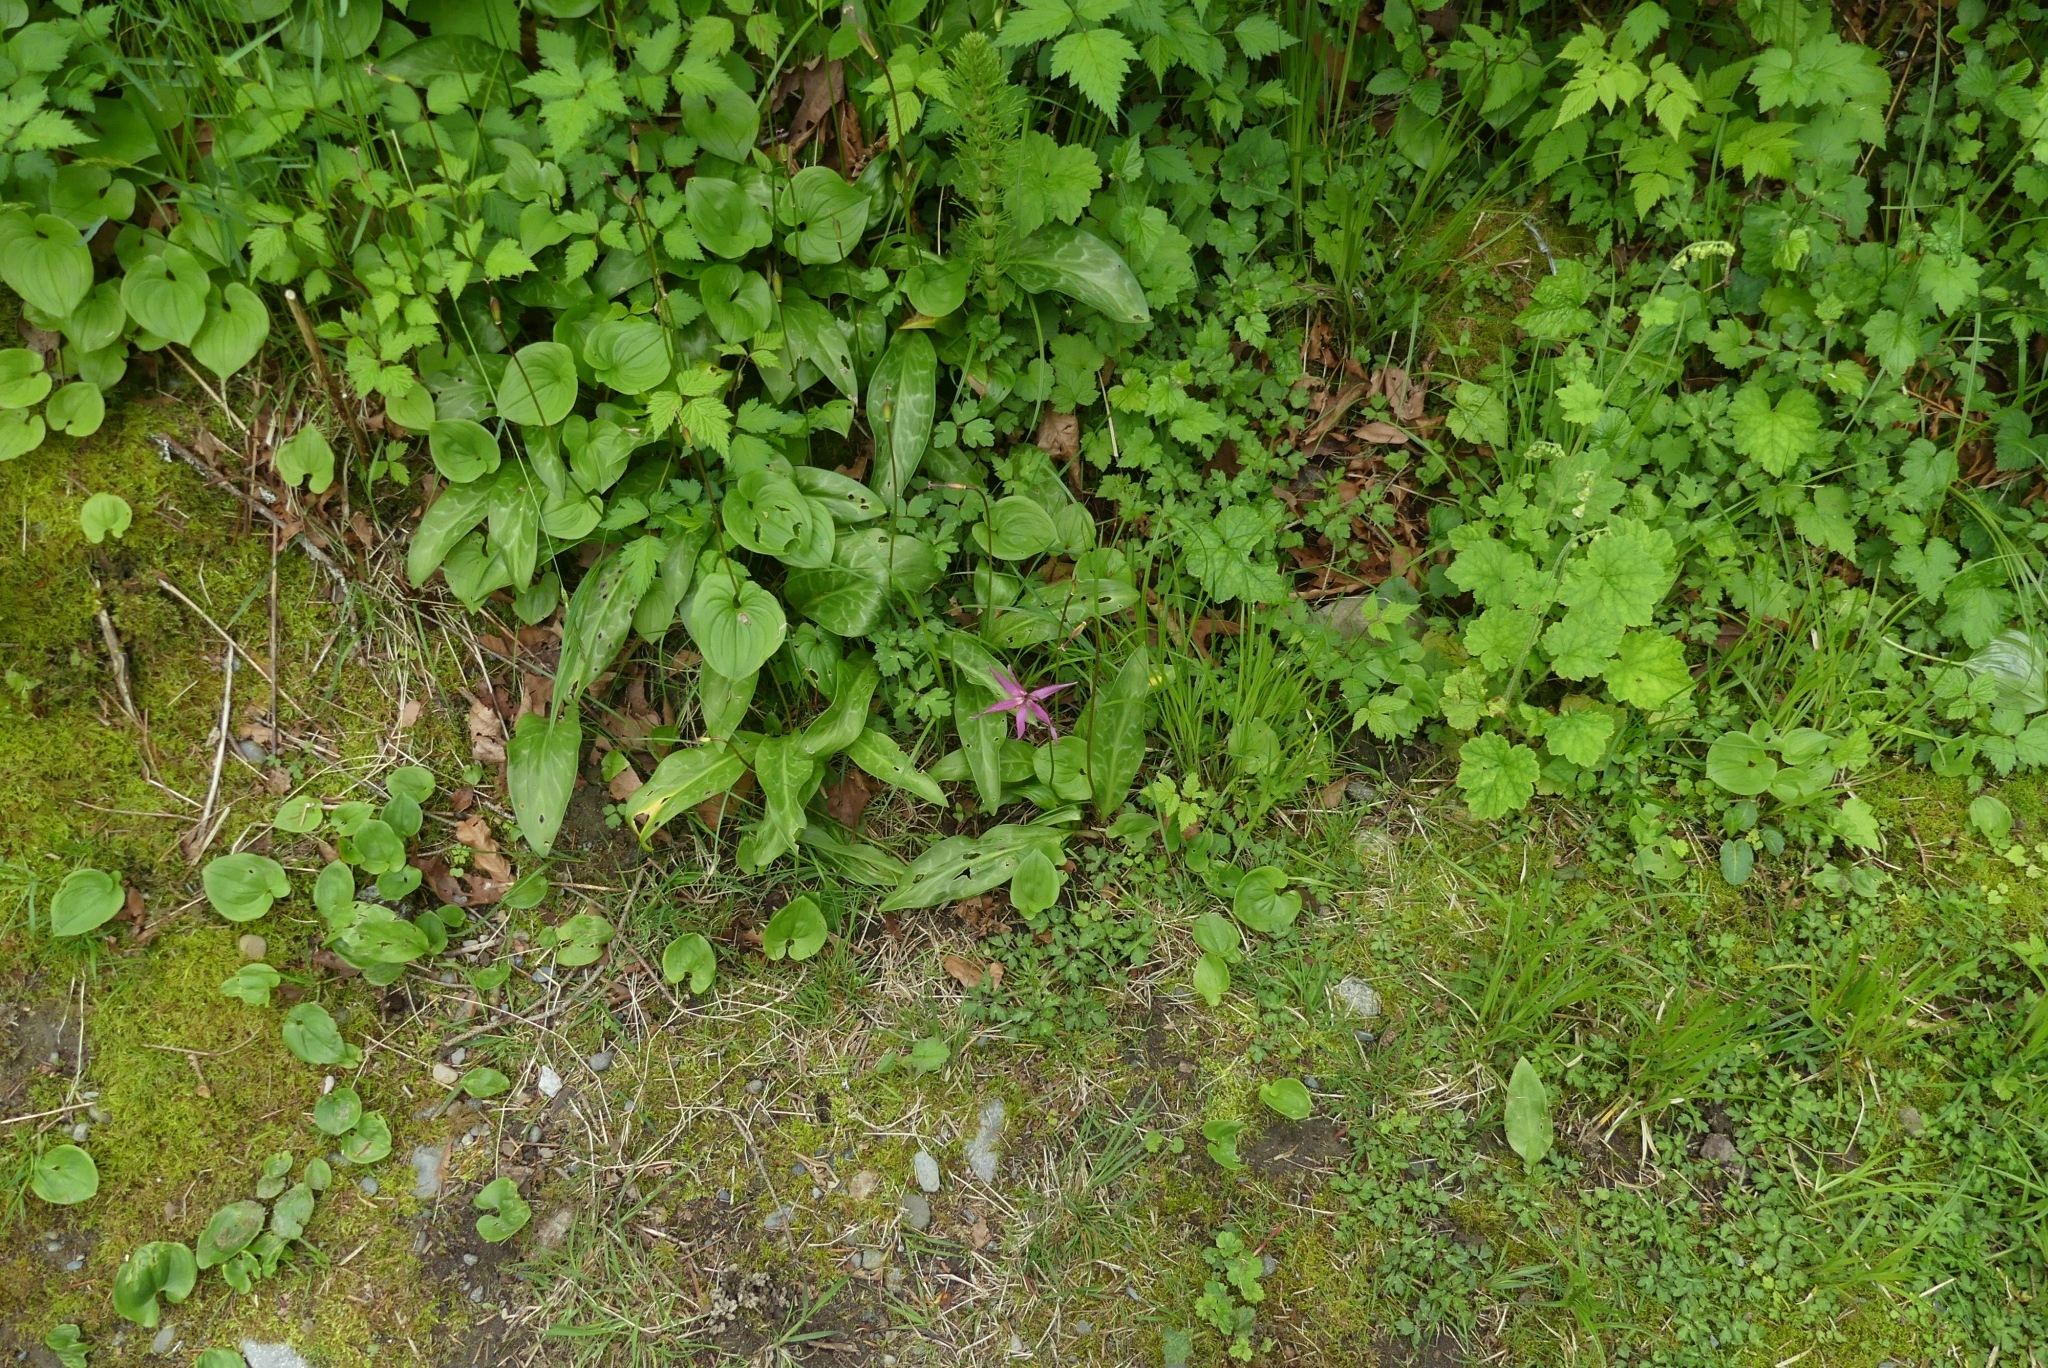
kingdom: Plantae
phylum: Tracheophyta
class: Liliopsida
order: Liliales
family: Liliaceae
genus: Erythronium
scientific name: Erythronium revolutum
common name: Pink fawn-lily
